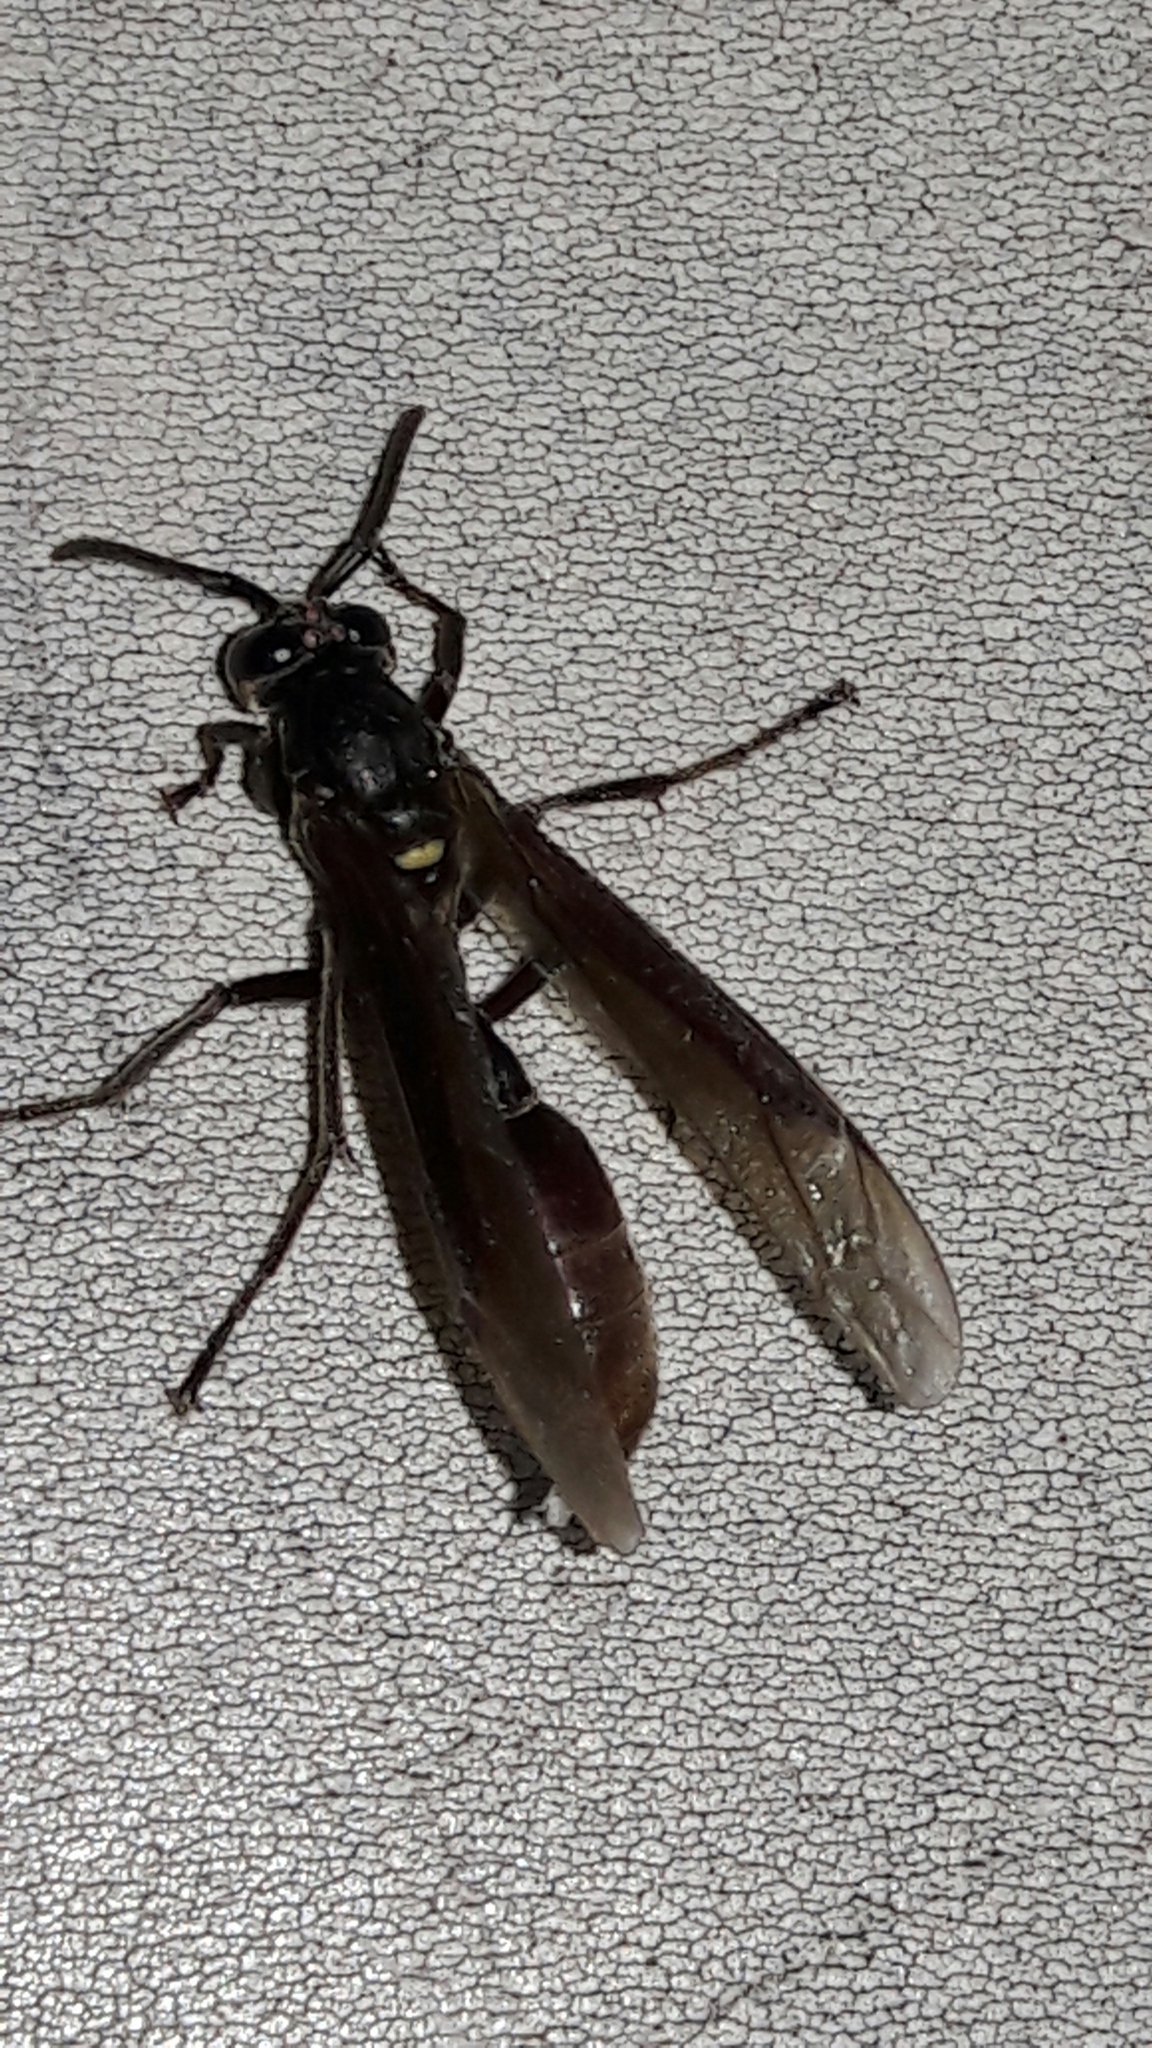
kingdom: Animalia
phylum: Arthropoda
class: Insecta
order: Hymenoptera
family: Vespidae
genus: Apoica
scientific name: Apoica thoracica
